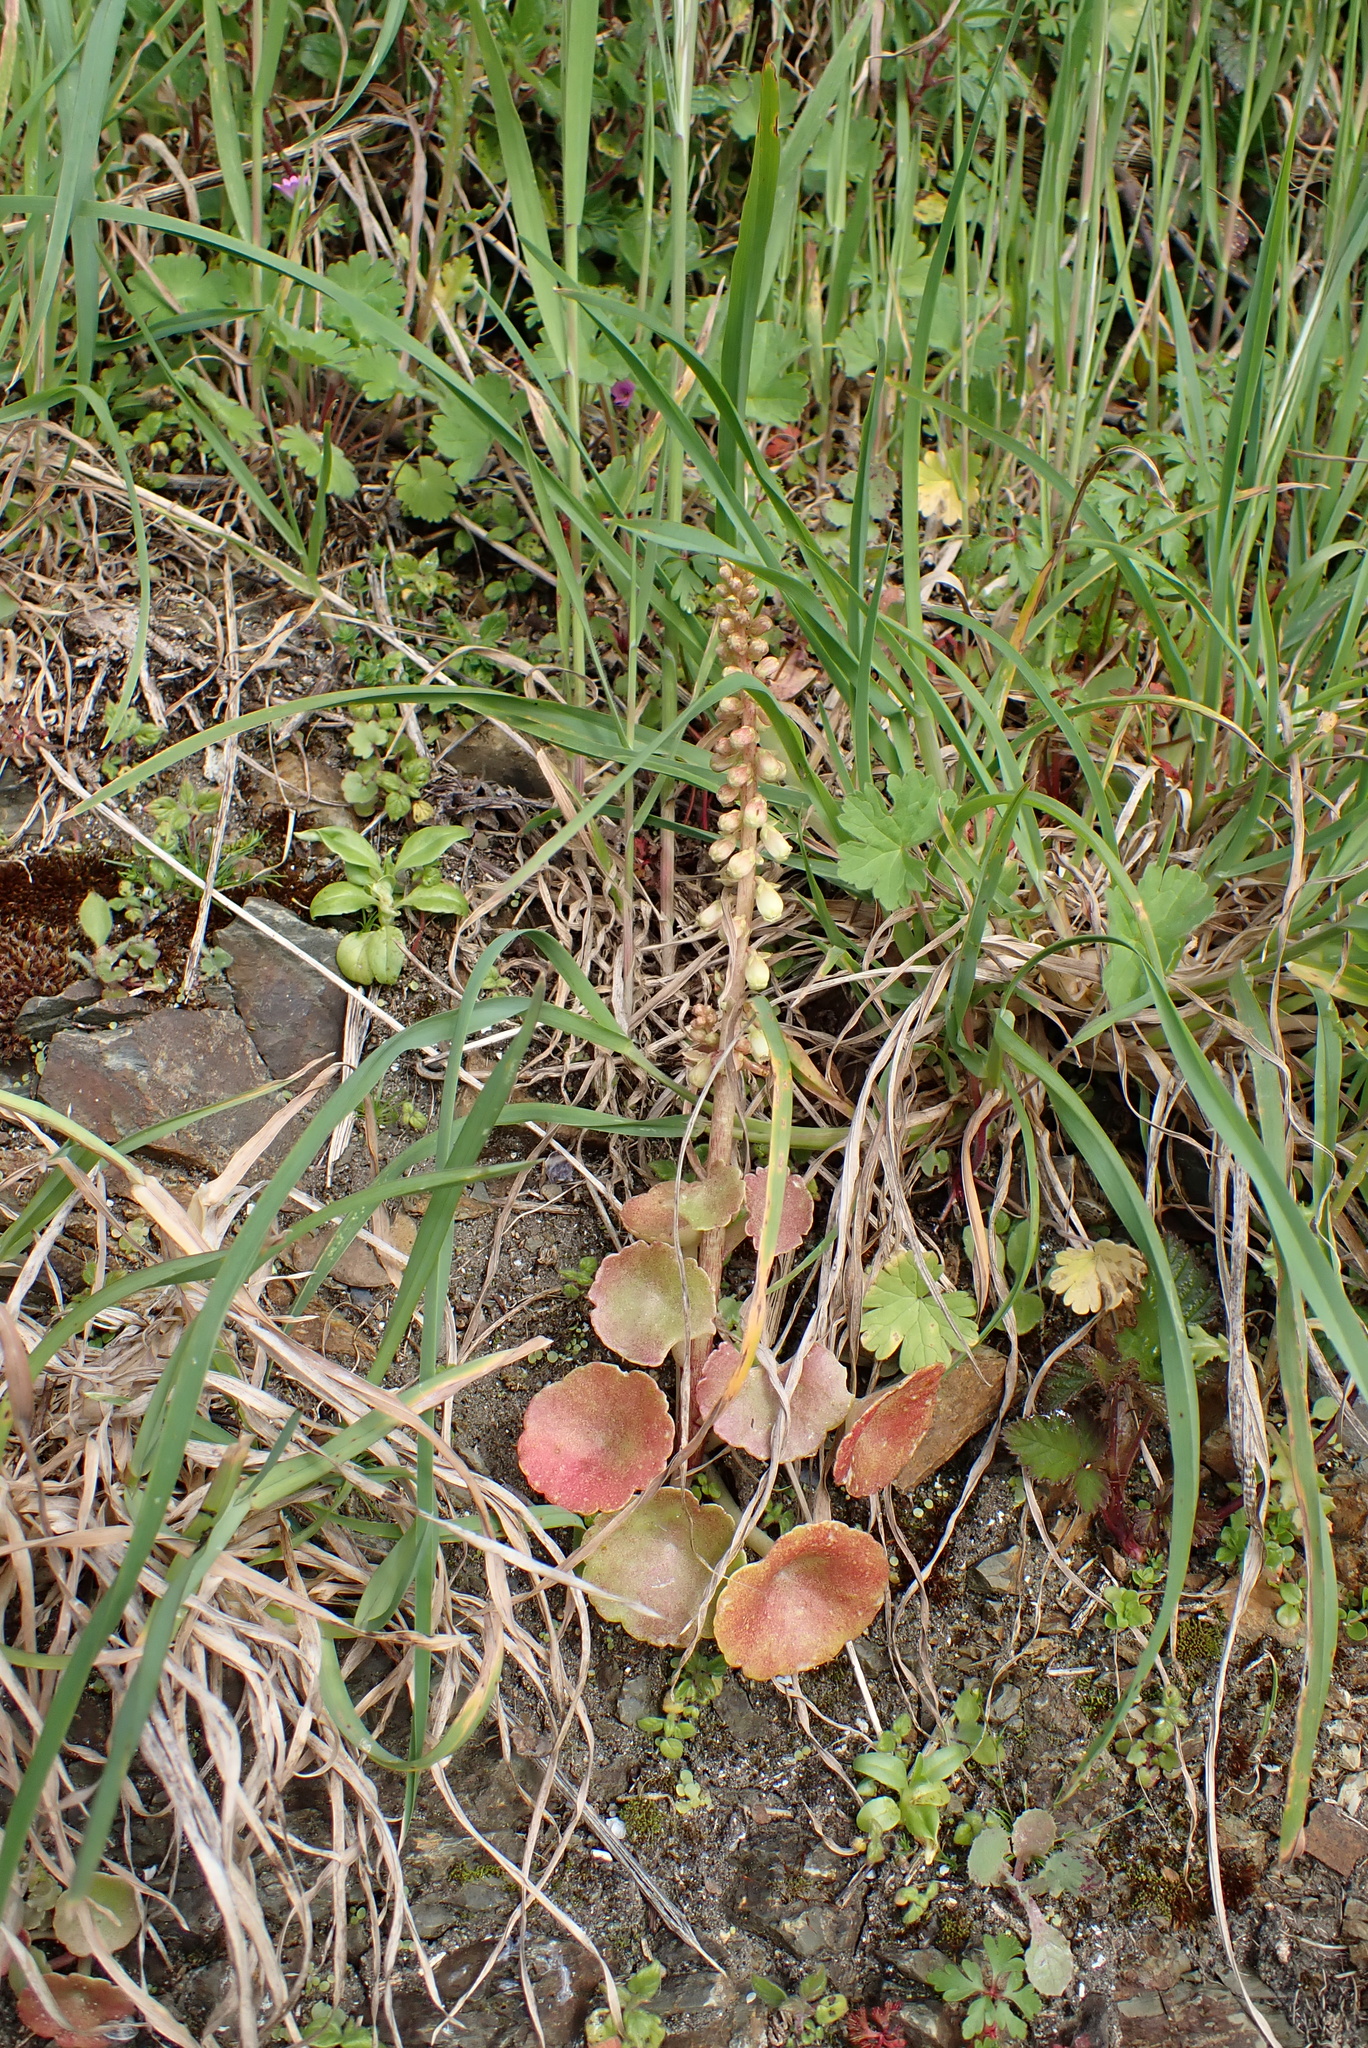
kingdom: Plantae
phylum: Tracheophyta
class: Magnoliopsida
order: Saxifragales
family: Crassulaceae
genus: Umbilicus
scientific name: Umbilicus rupestris
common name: Navelwort
